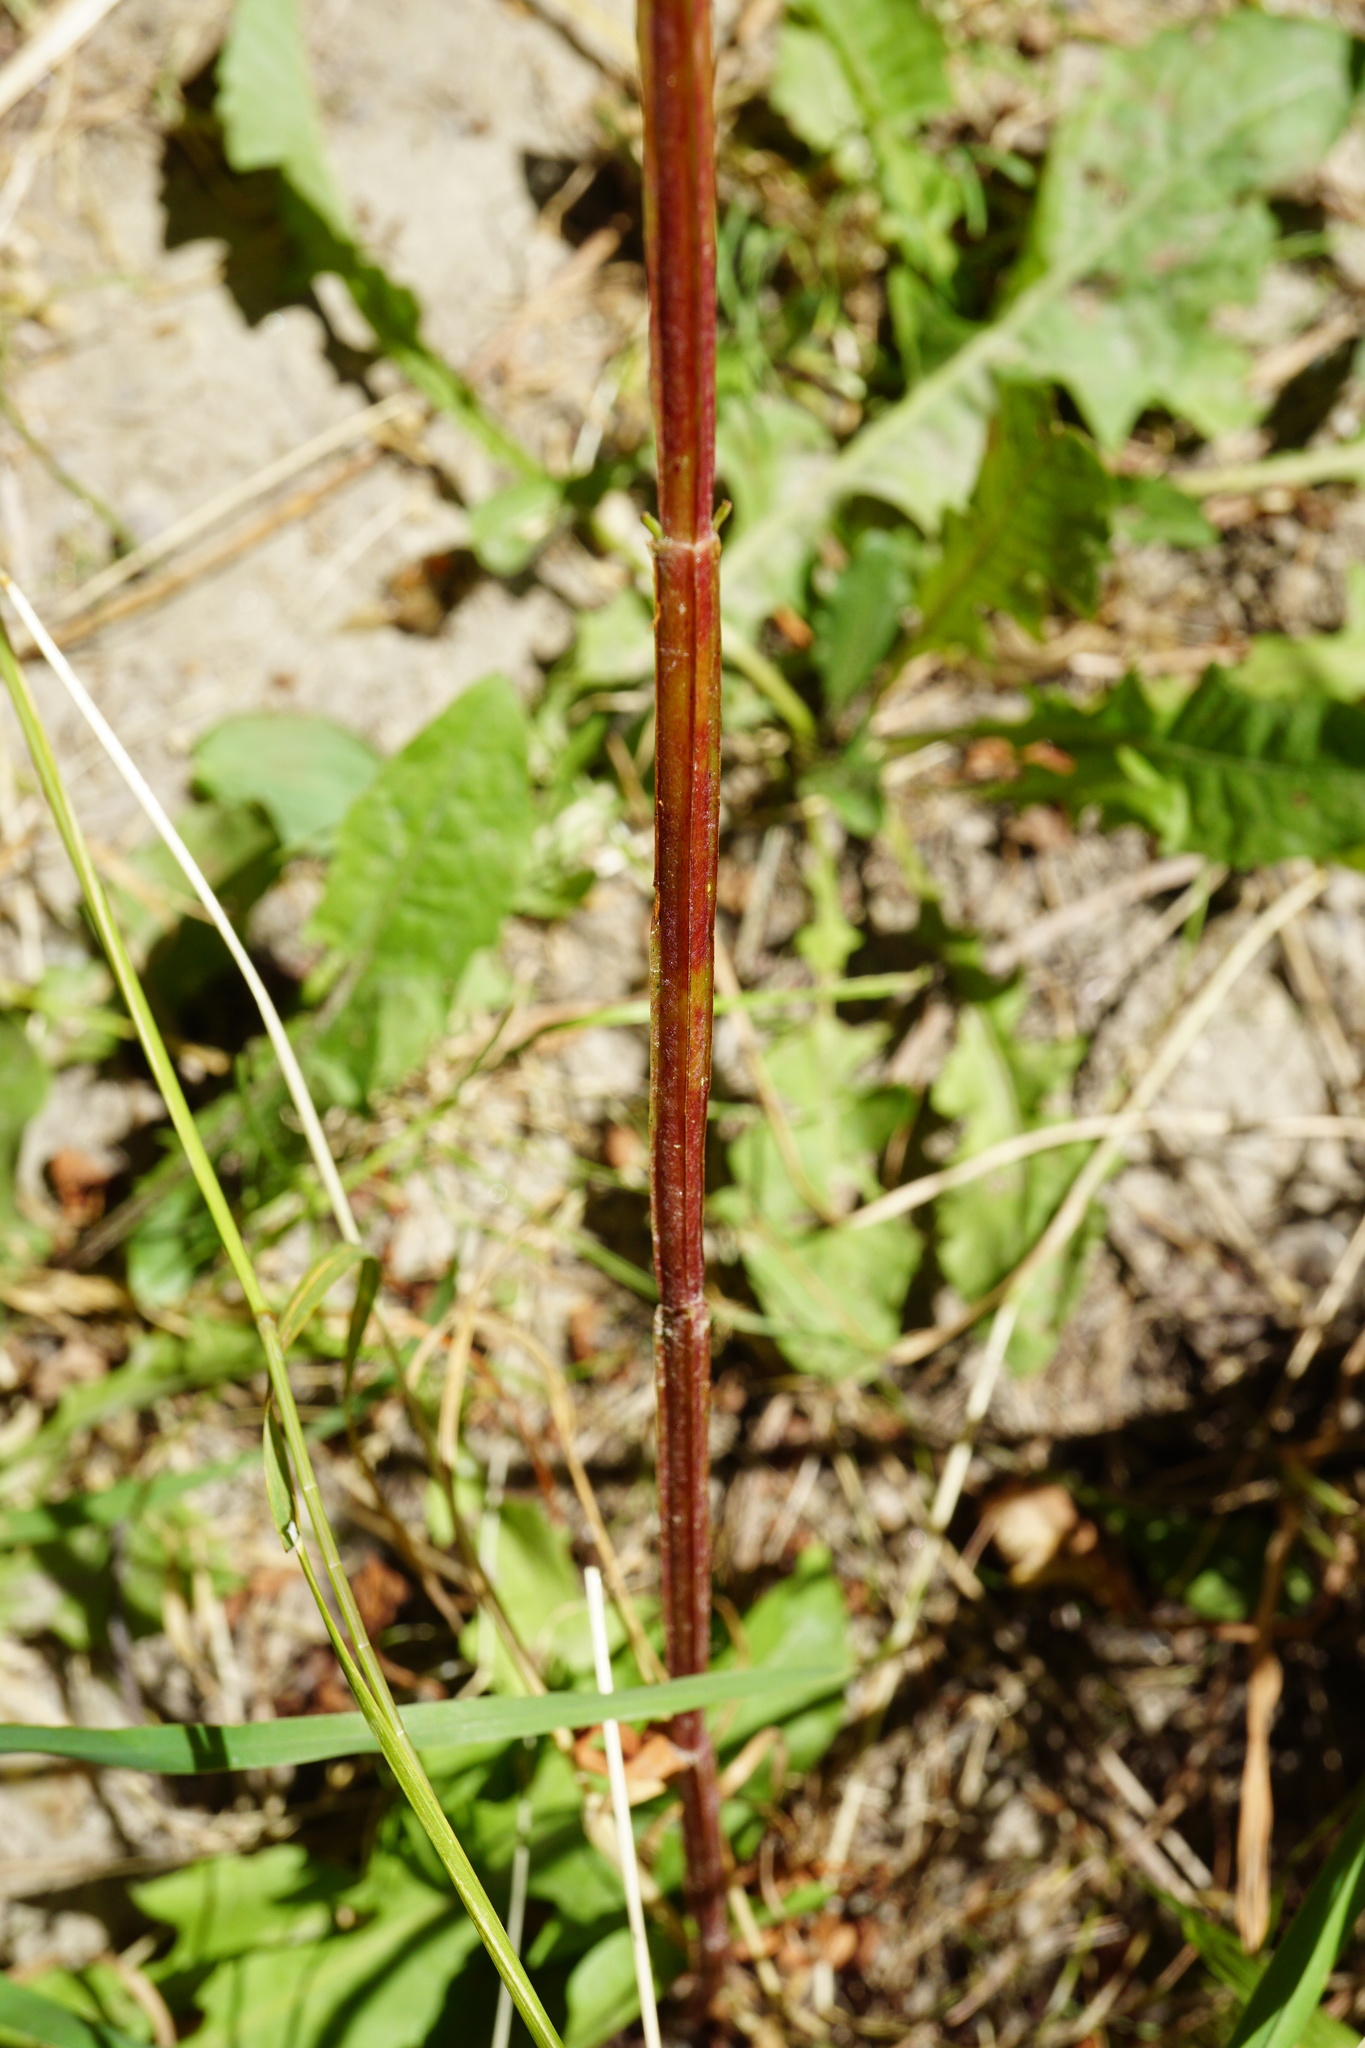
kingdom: Plantae
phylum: Tracheophyta
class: Magnoliopsida
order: Malpighiales
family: Hypericaceae
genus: Hypericum
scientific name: Hypericum tetrapterum
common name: Square-stalked st. john's-wort
